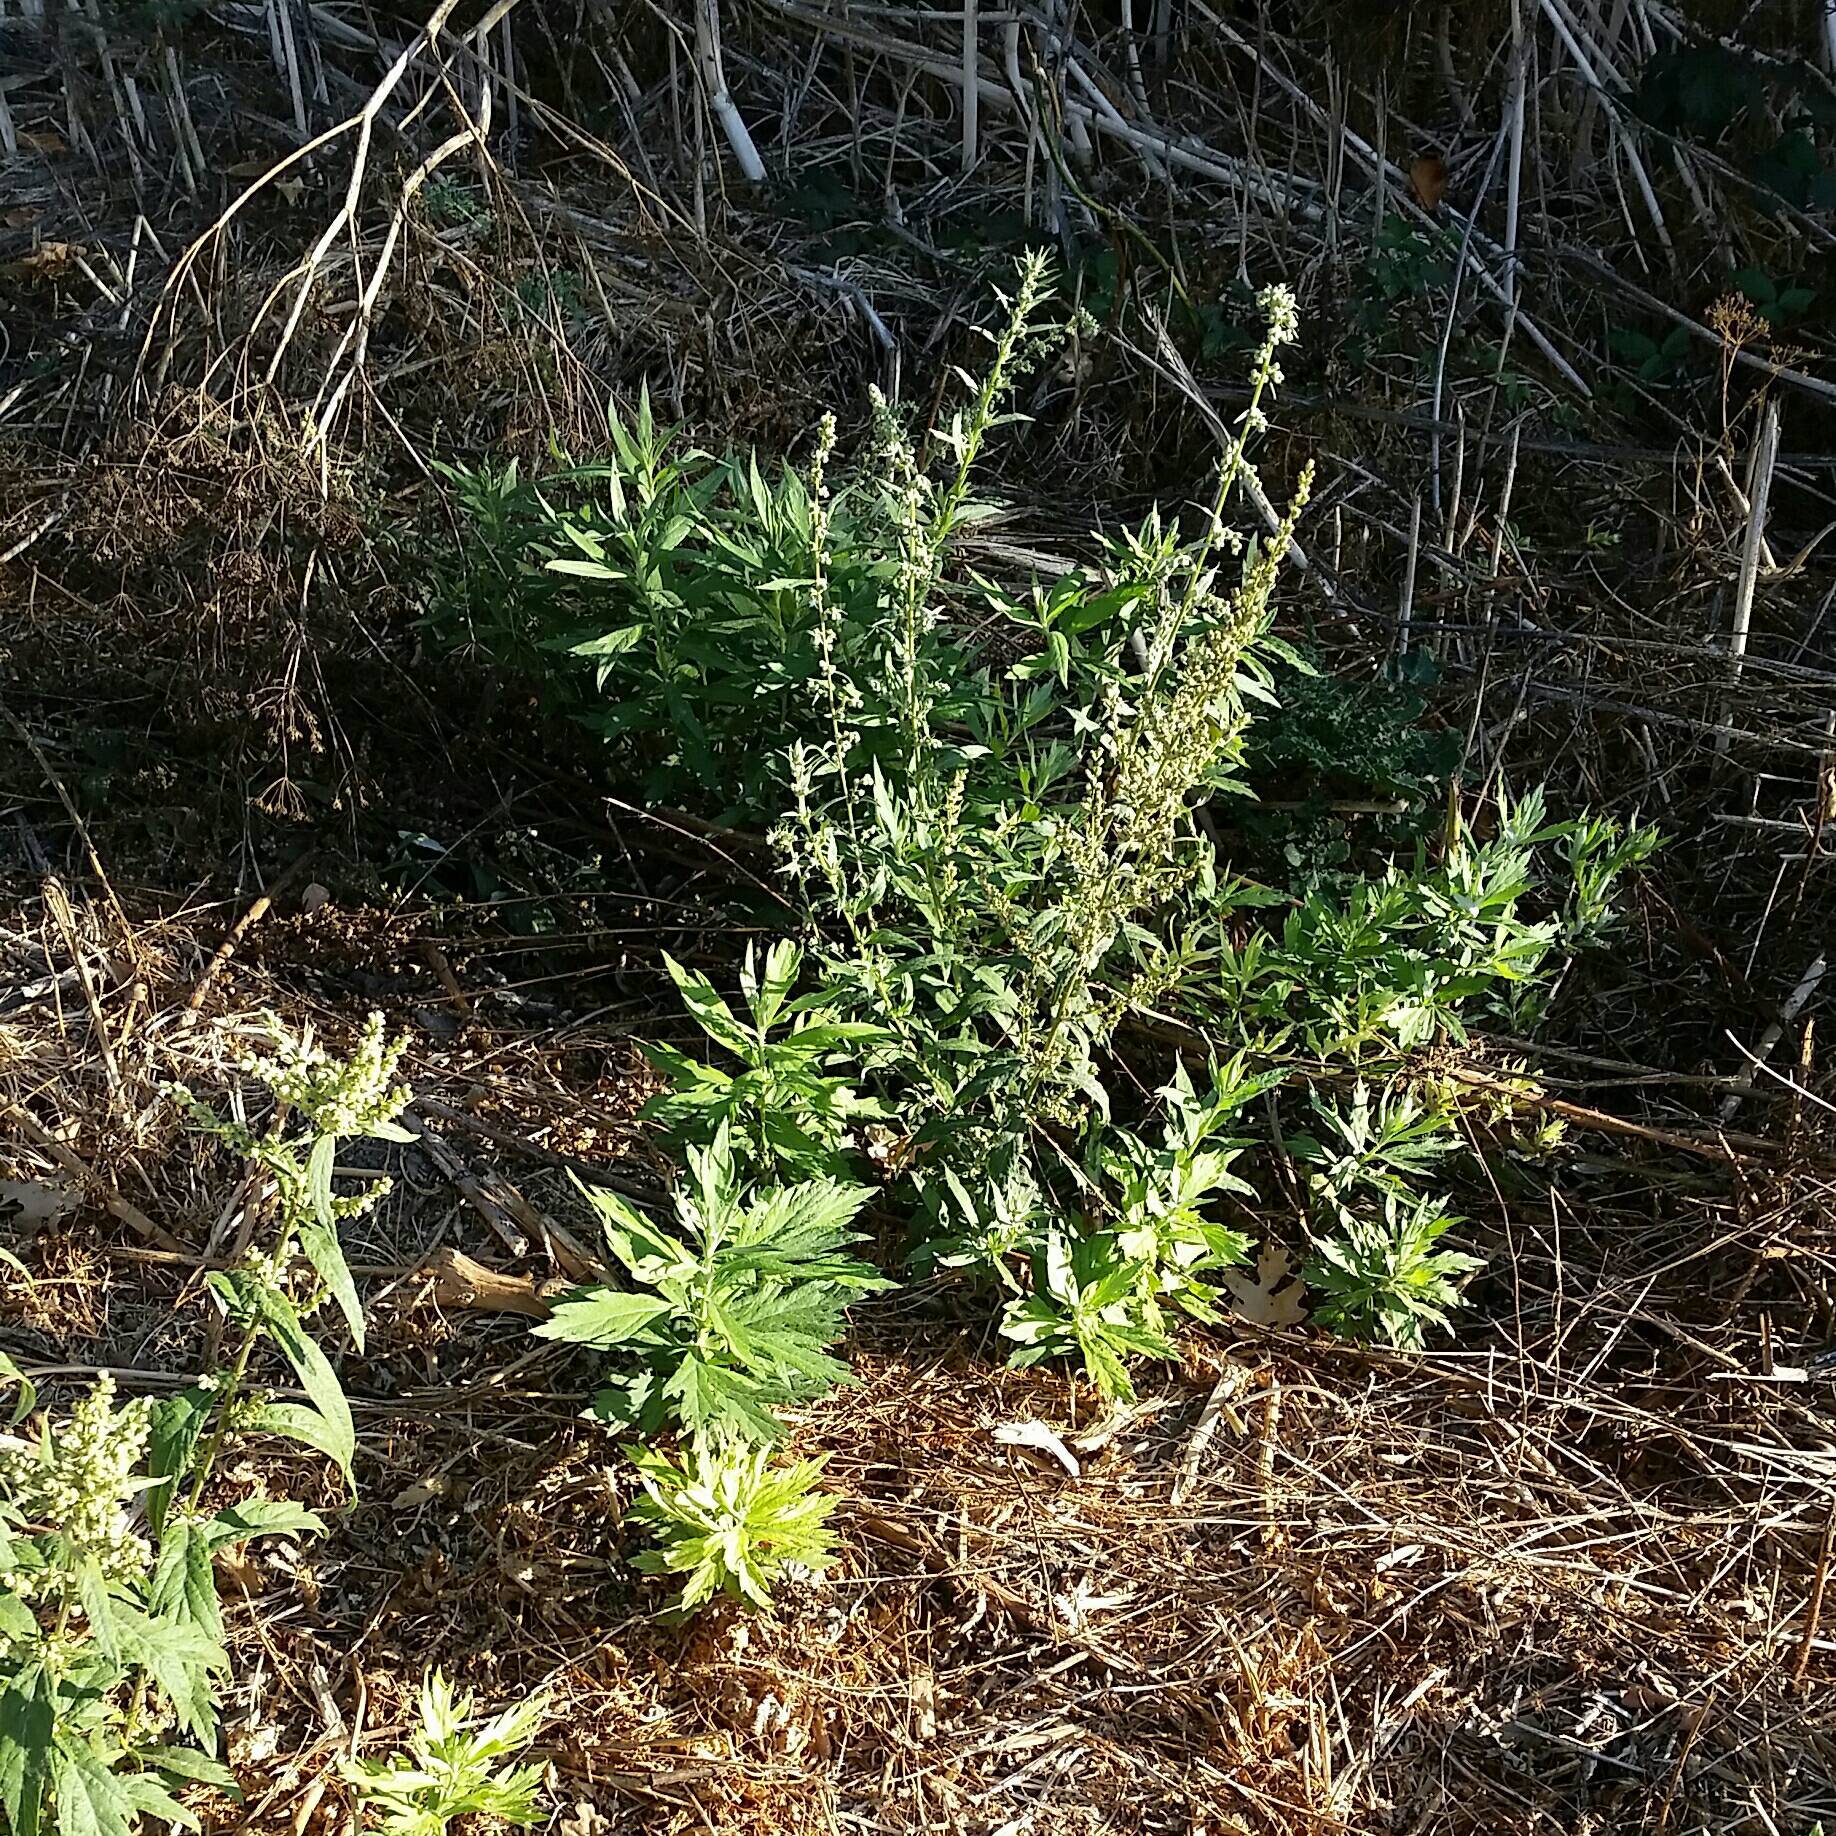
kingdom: Plantae
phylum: Tracheophyta
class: Magnoliopsida
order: Asterales
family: Asteraceae
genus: Artemisia
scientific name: Artemisia douglasiana
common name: Northwest mugwort
